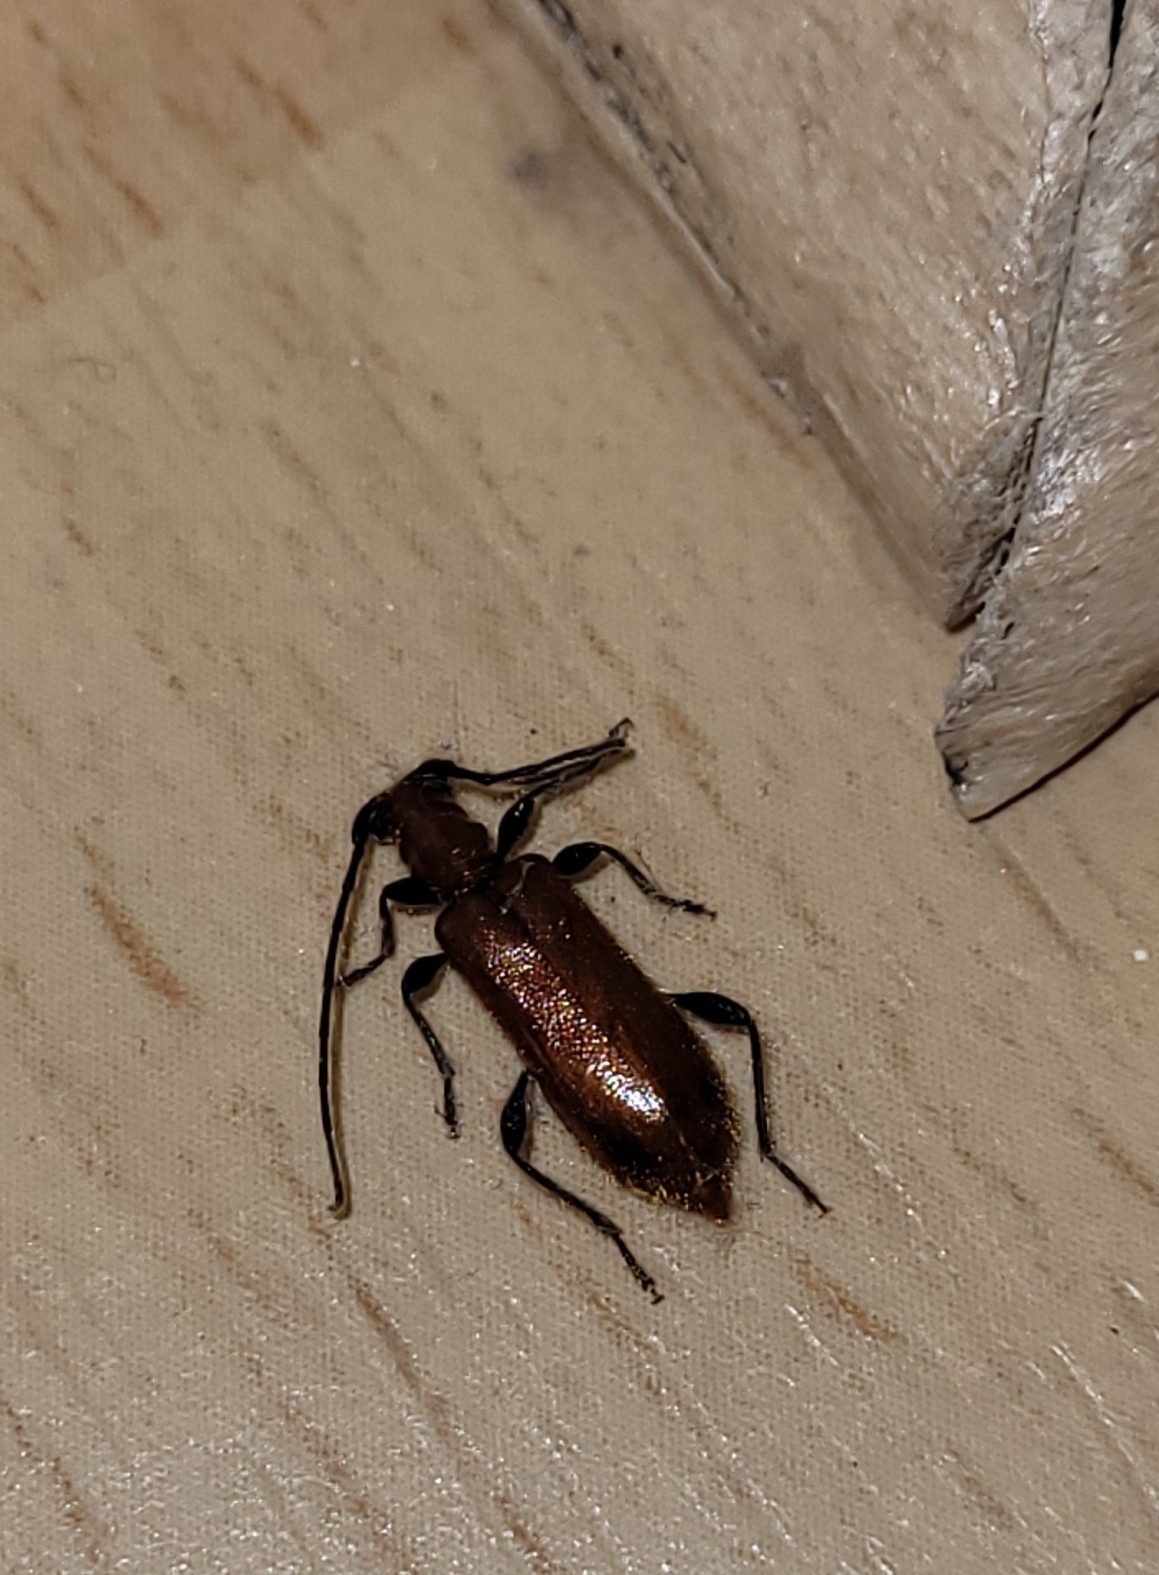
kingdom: Animalia
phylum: Arthropoda
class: Insecta
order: Coleoptera
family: Cerambycidae
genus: Obrium
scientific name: Obrium cantharinum
